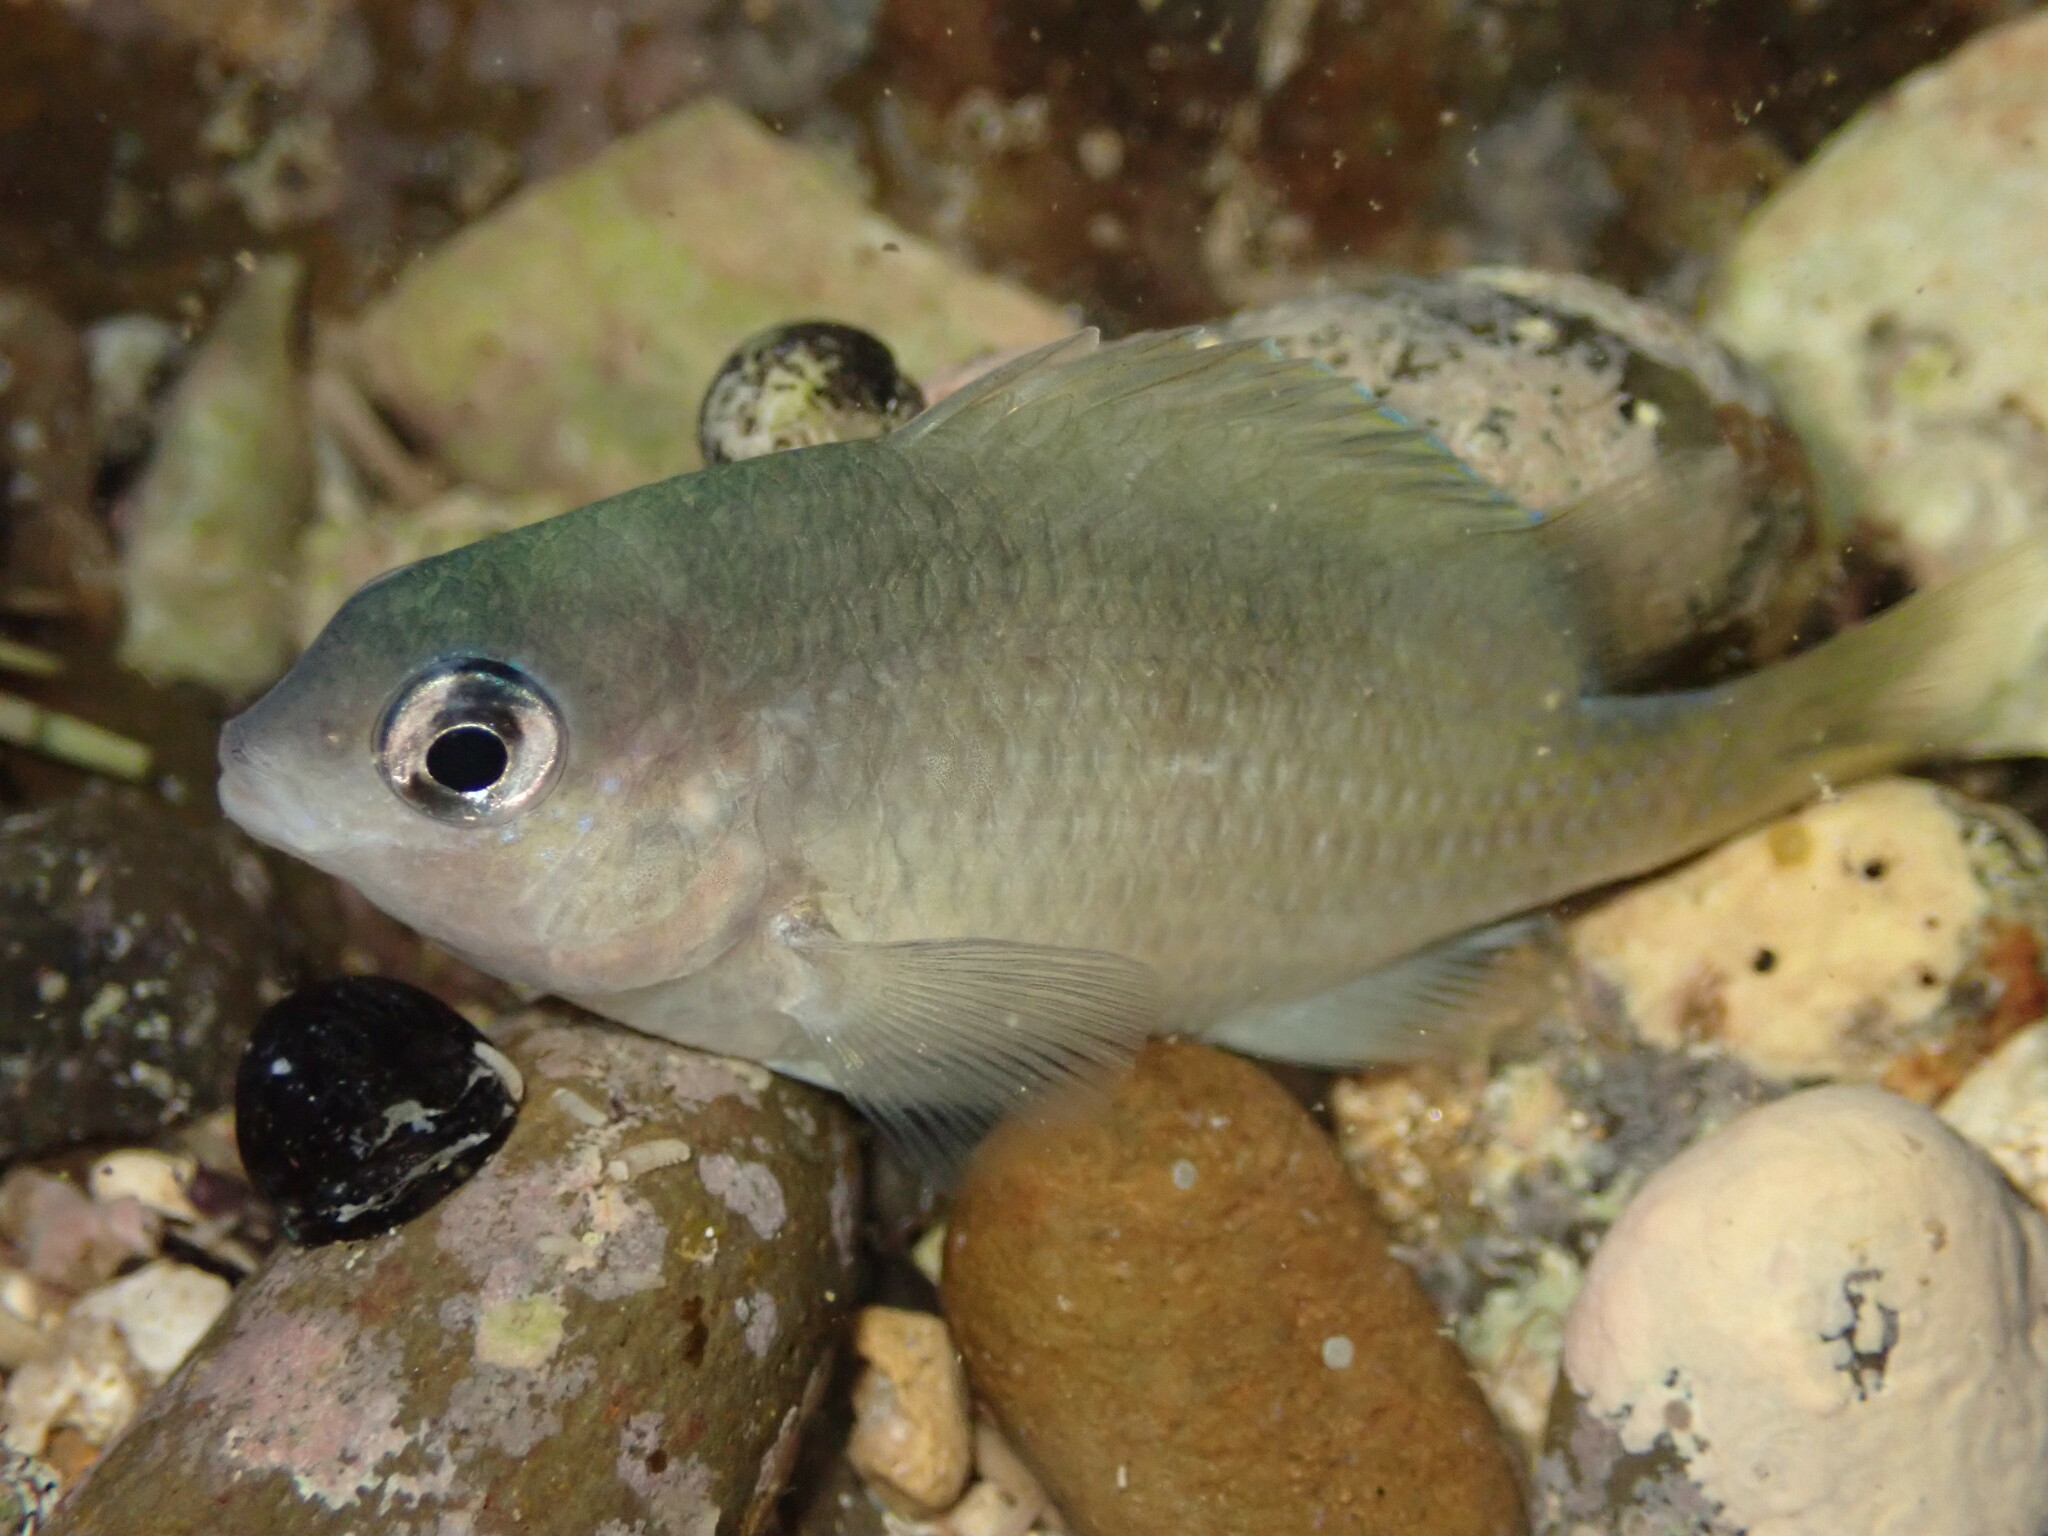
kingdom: Animalia
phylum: Chordata
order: Perciformes
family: Pomacentridae
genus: Plectroglyphidodon
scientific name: Plectroglyphidodon imparipennis
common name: Brighteye damsel
